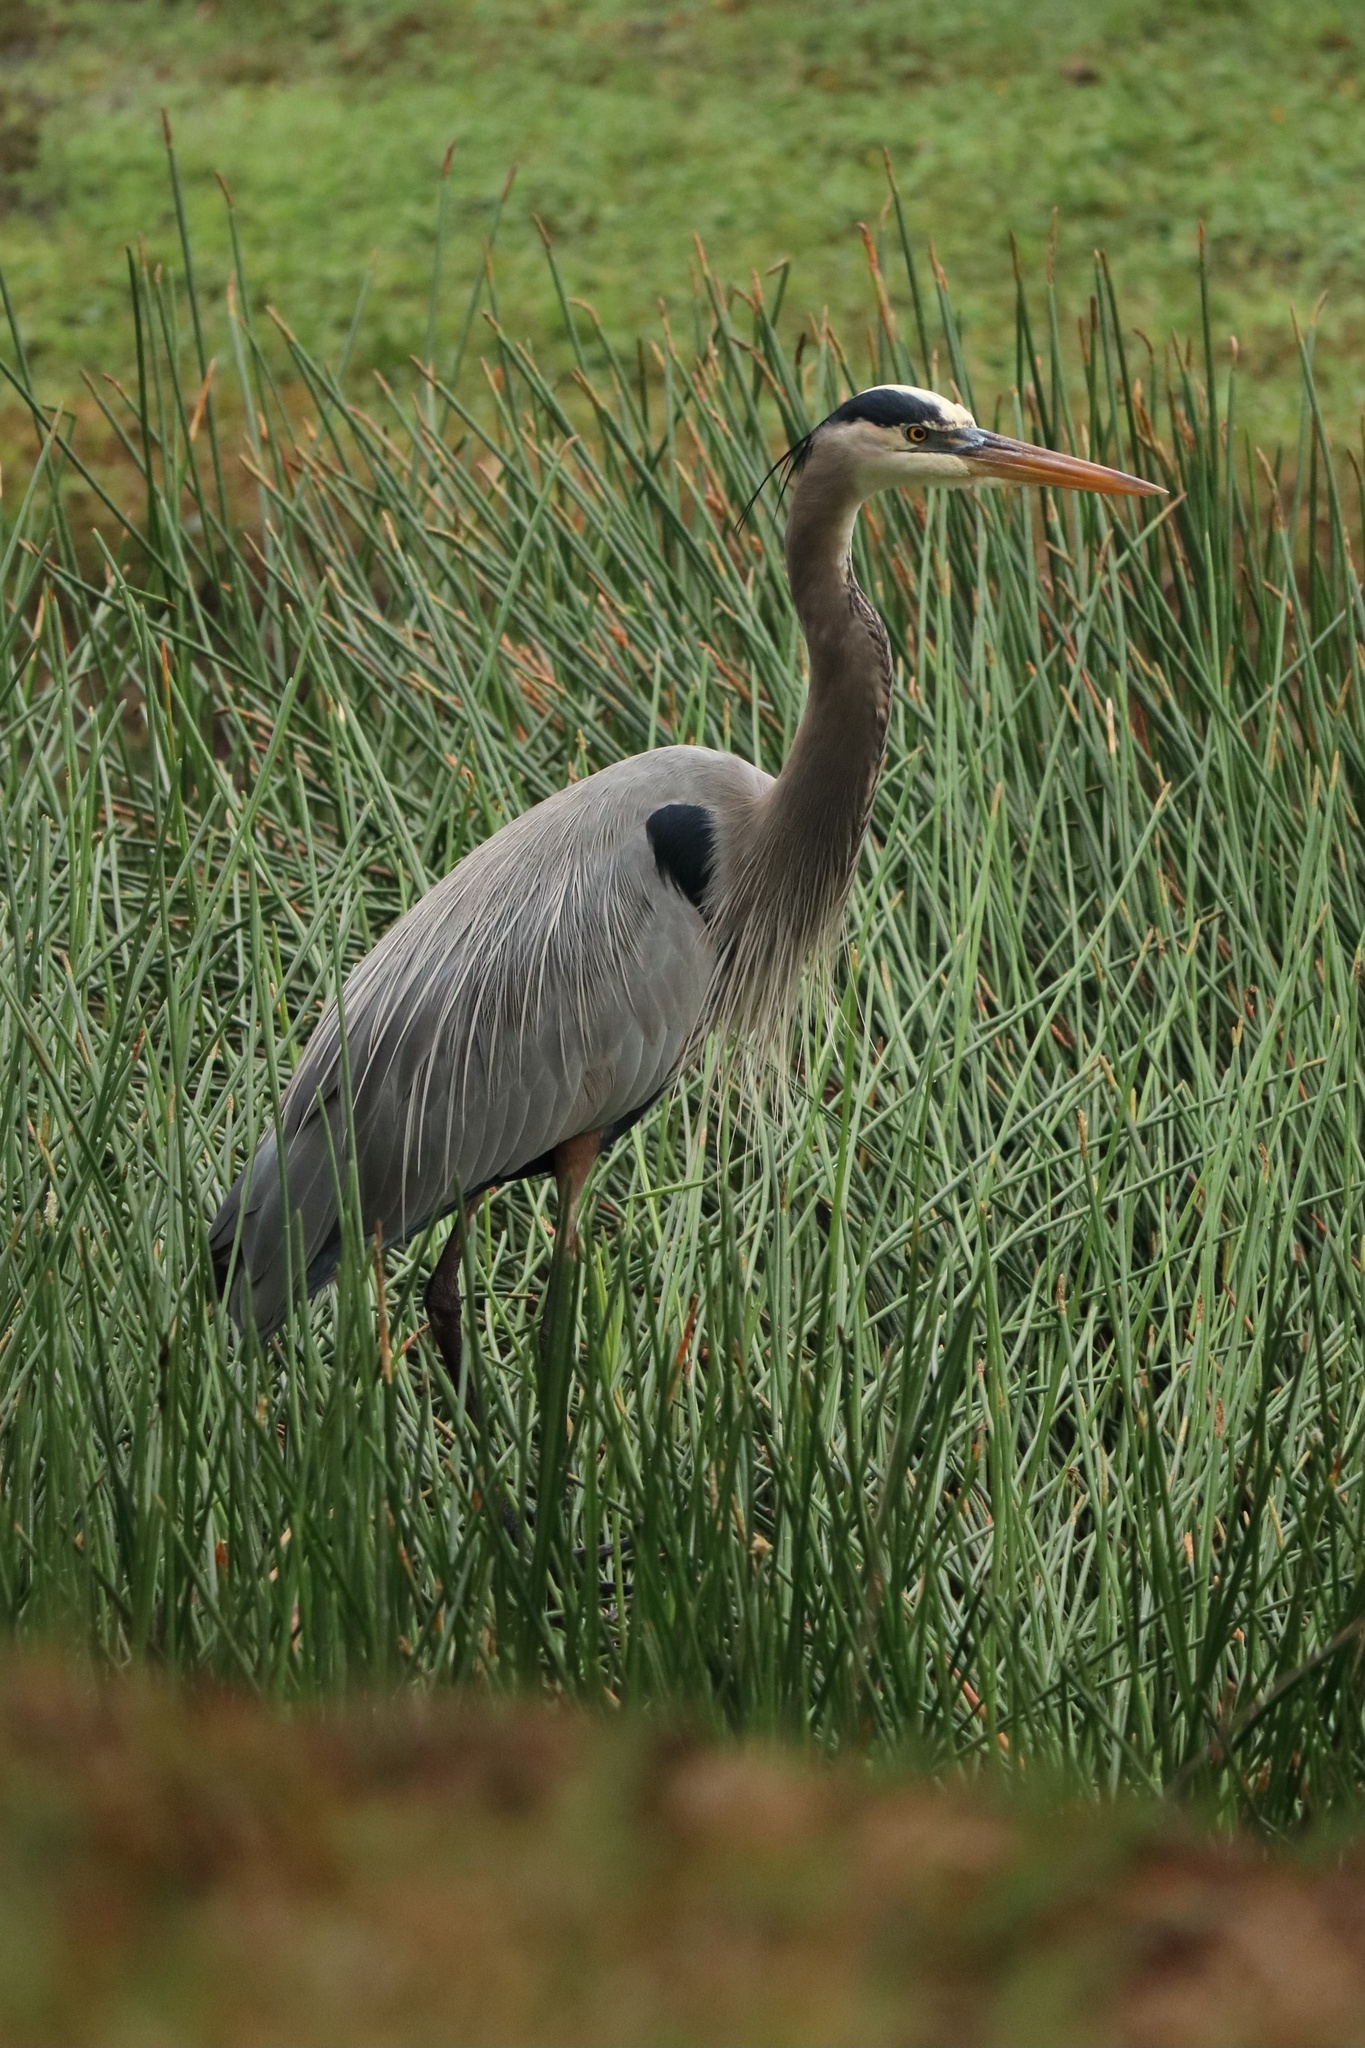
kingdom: Animalia
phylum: Chordata
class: Aves
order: Pelecaniformes
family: Ardeidae
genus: Ardea
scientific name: Ardea herodias
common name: Great blue heron
